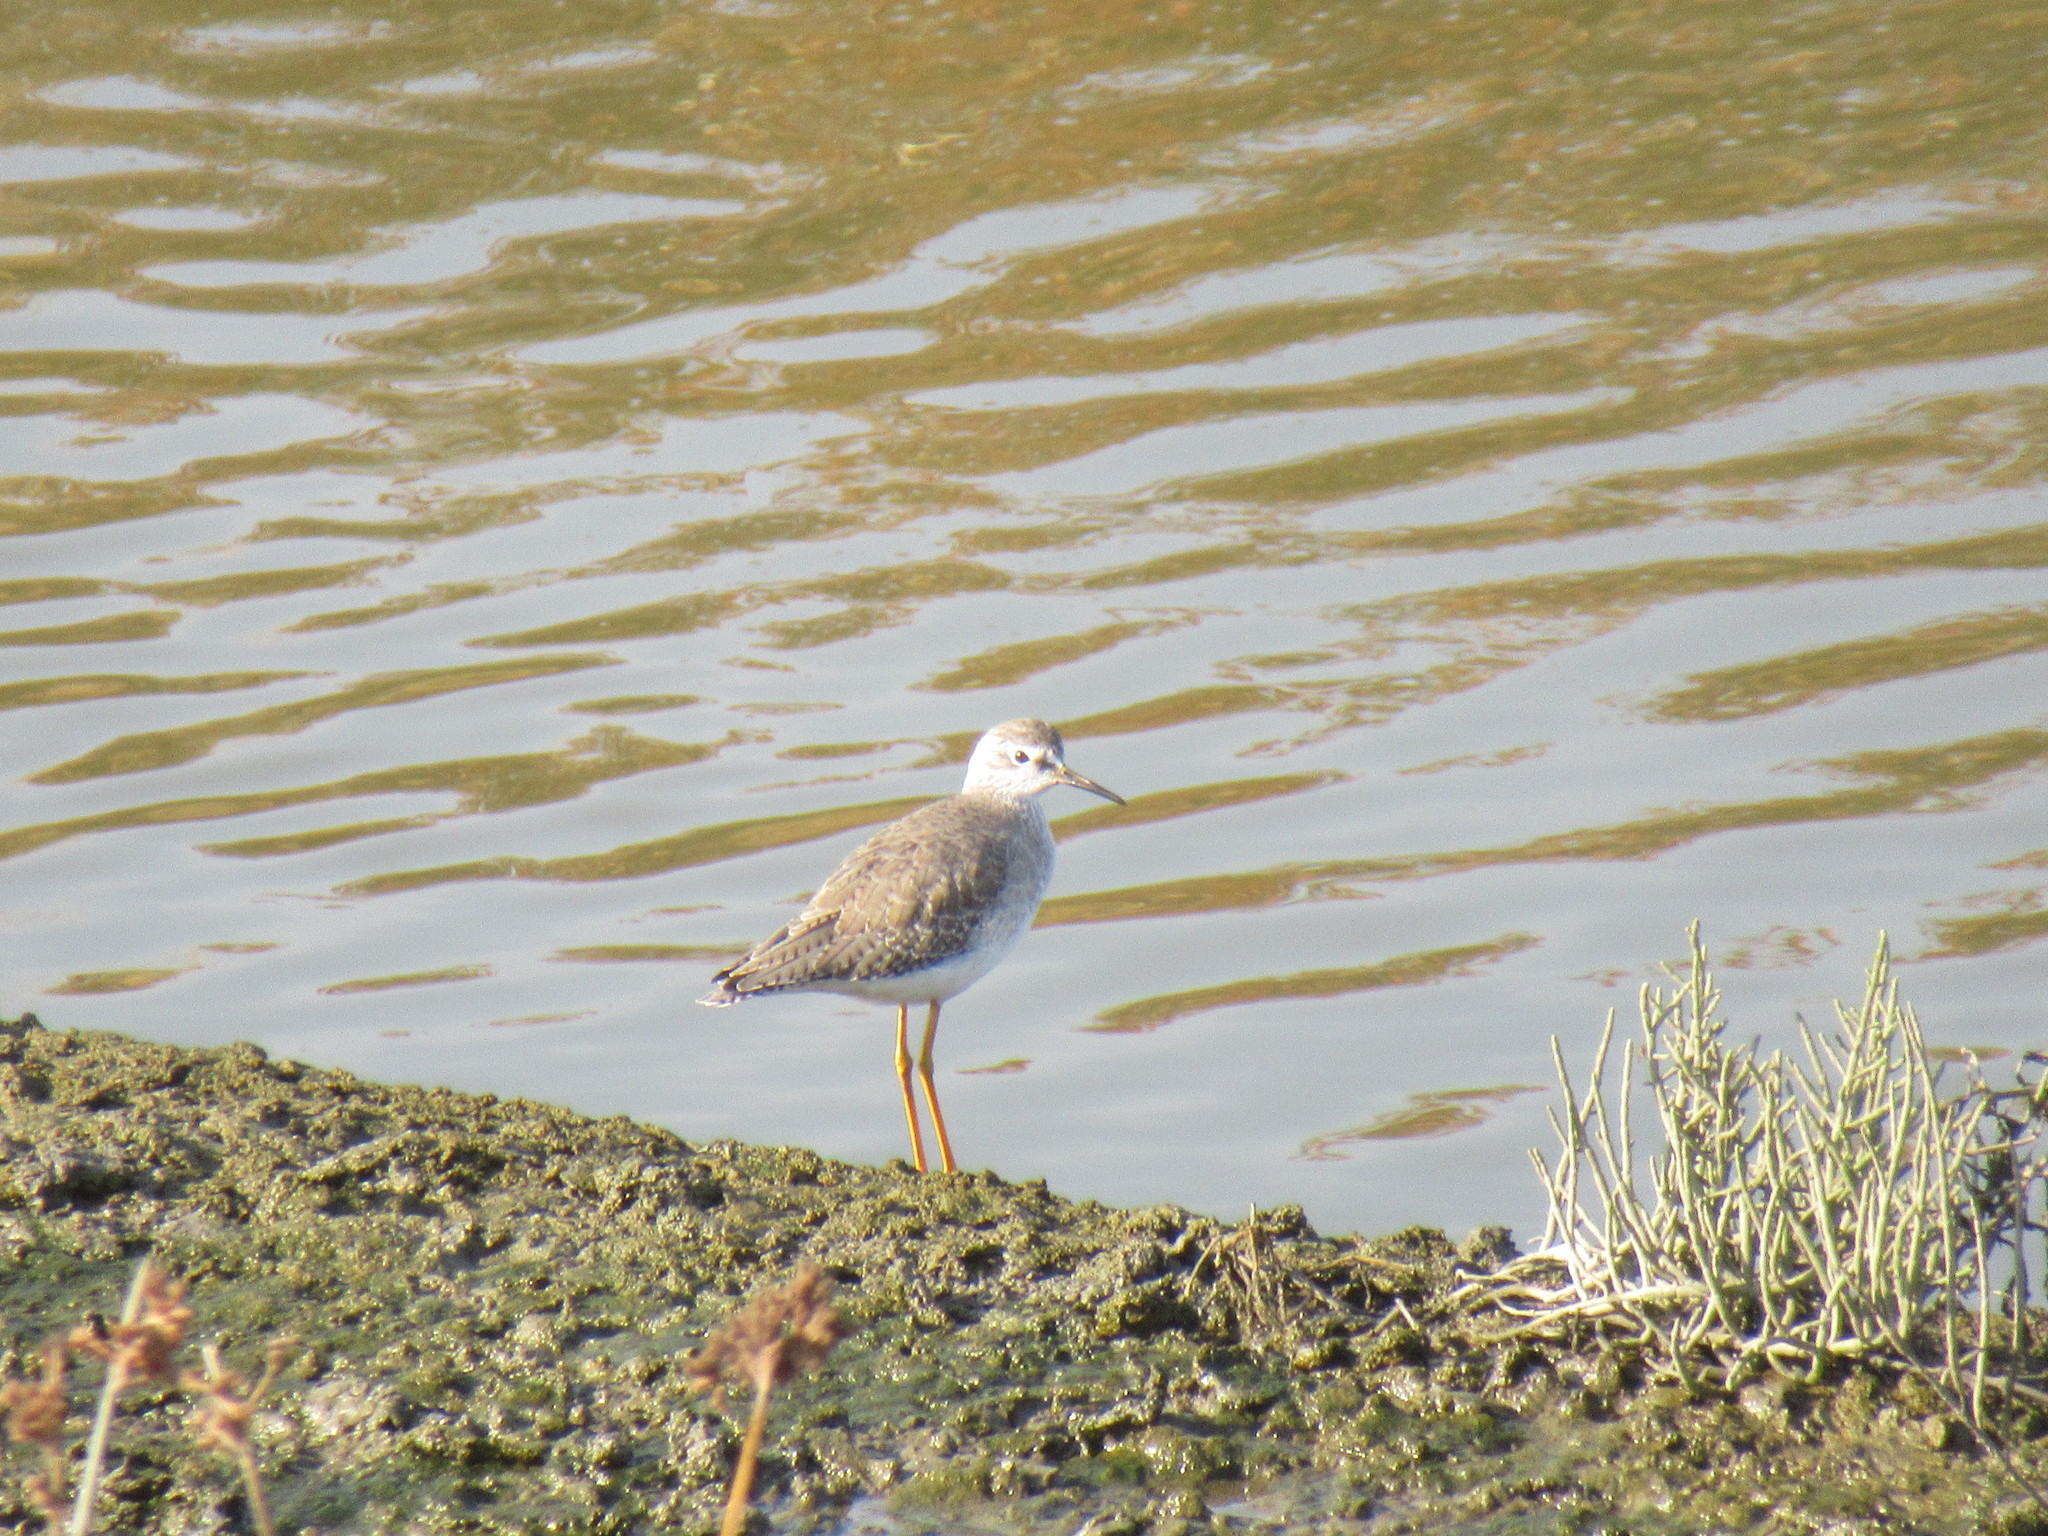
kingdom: Animalia
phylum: Chordata
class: Aves
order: Charadriiformes
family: Scolopacidae
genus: Tringa
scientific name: Tringa flavipes
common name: Lesser yellowlegs
